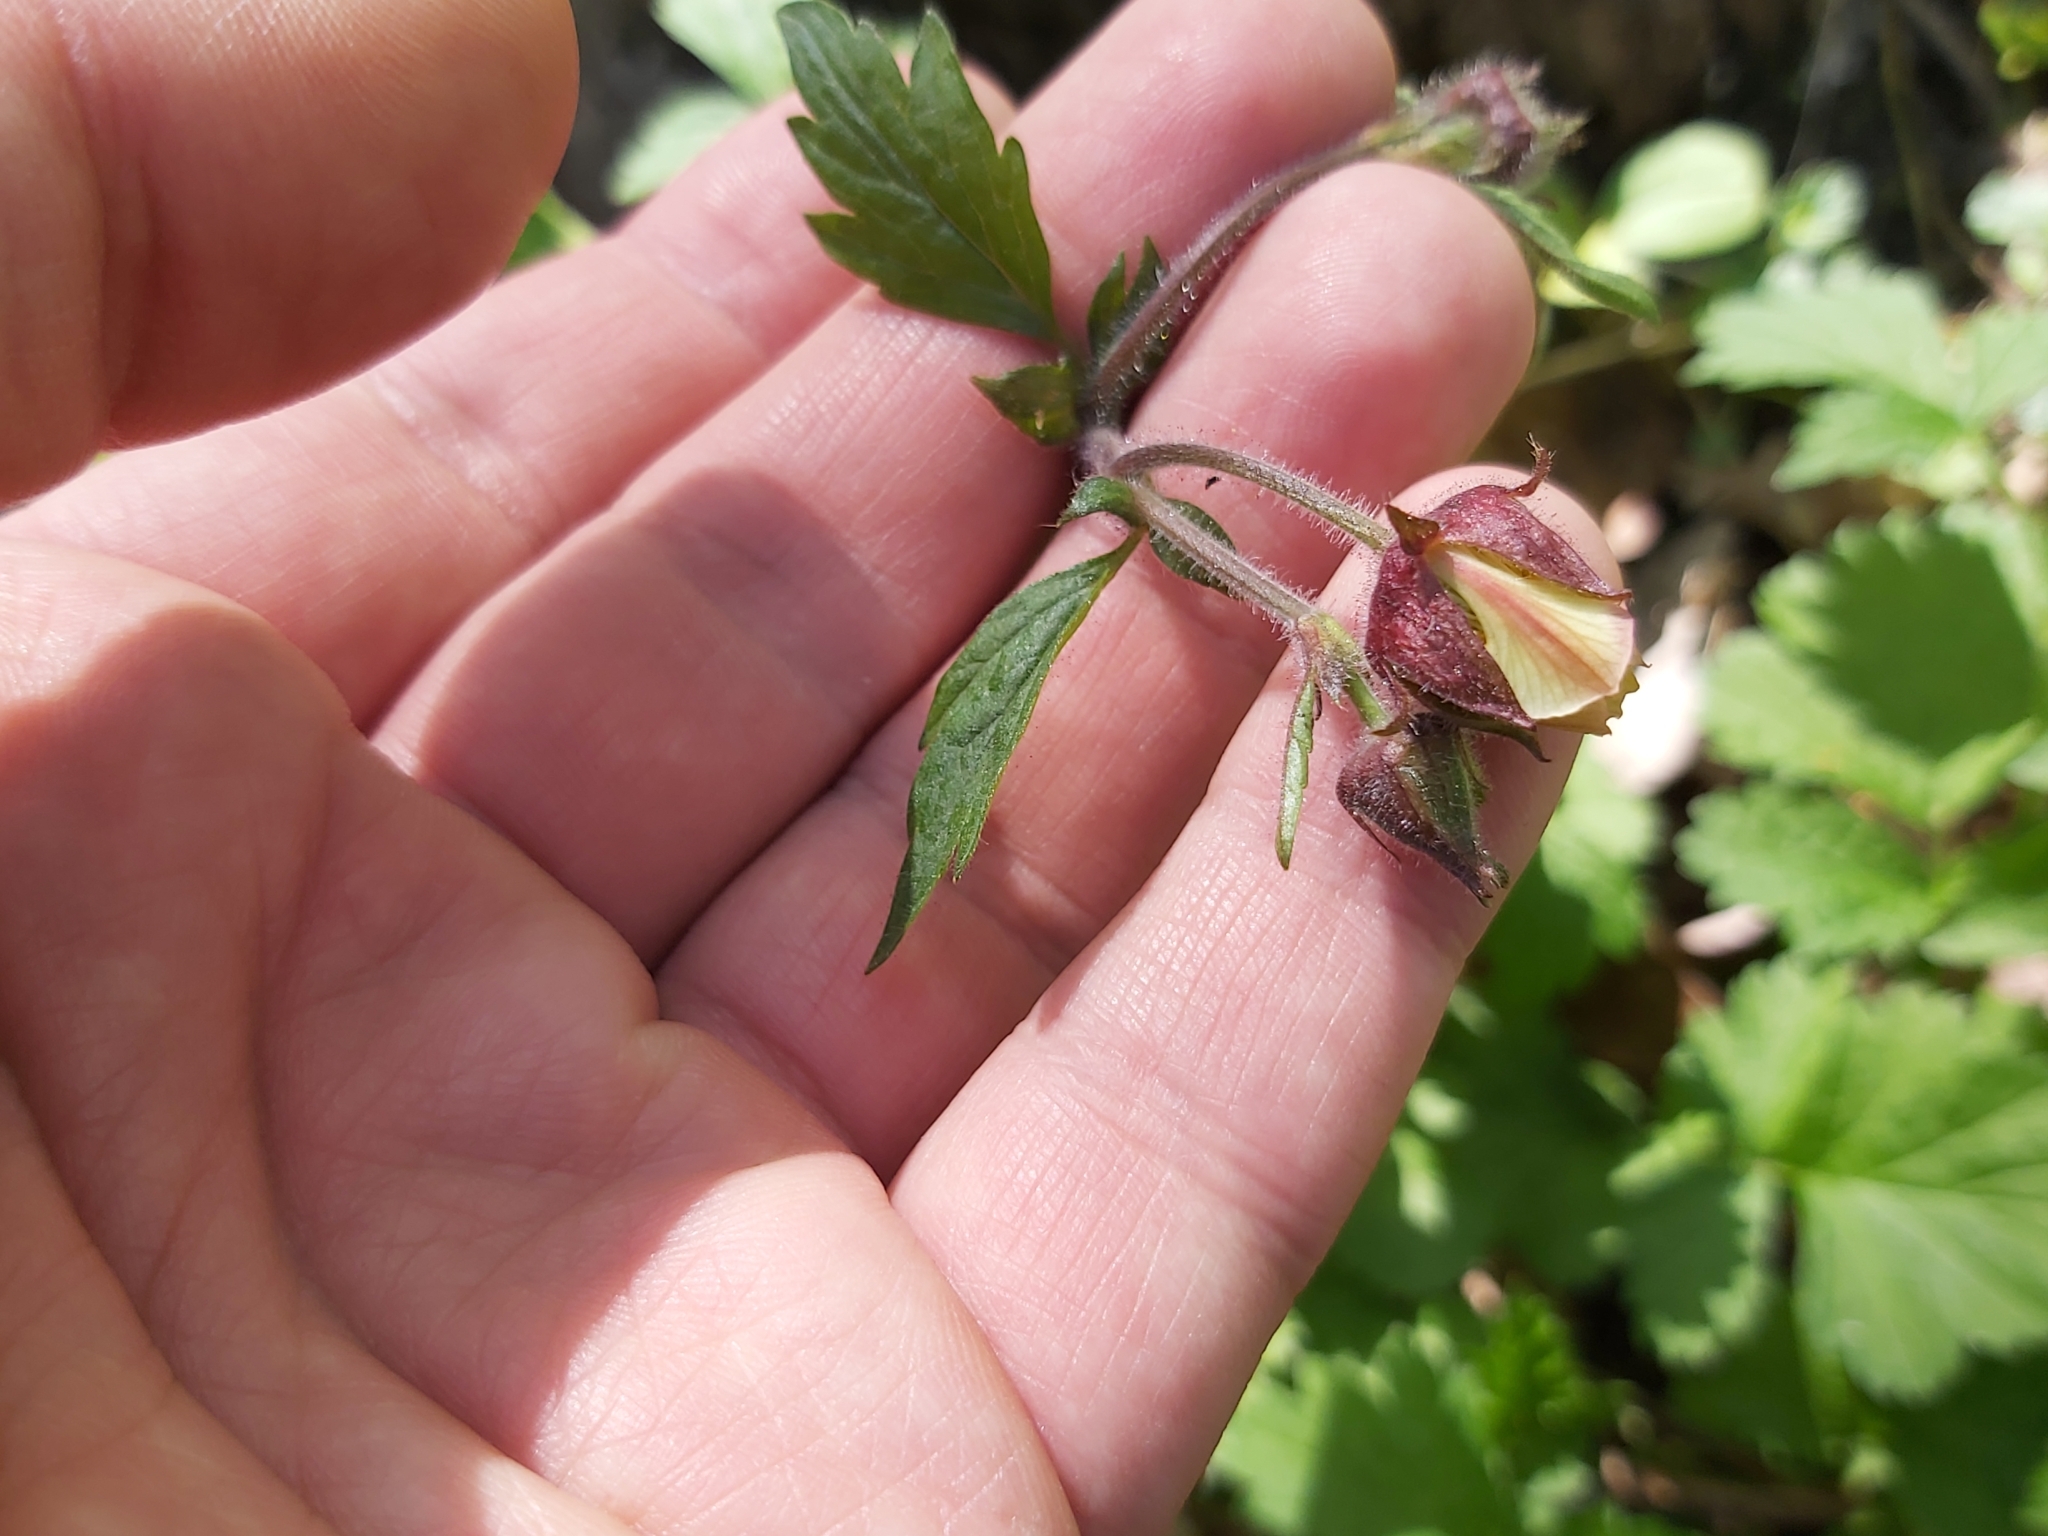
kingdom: Plantae
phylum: Tracheophyta
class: Magnoliopsida
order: Rosales
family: Rosaceae
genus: Geum
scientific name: Geum rivale
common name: Water avens
